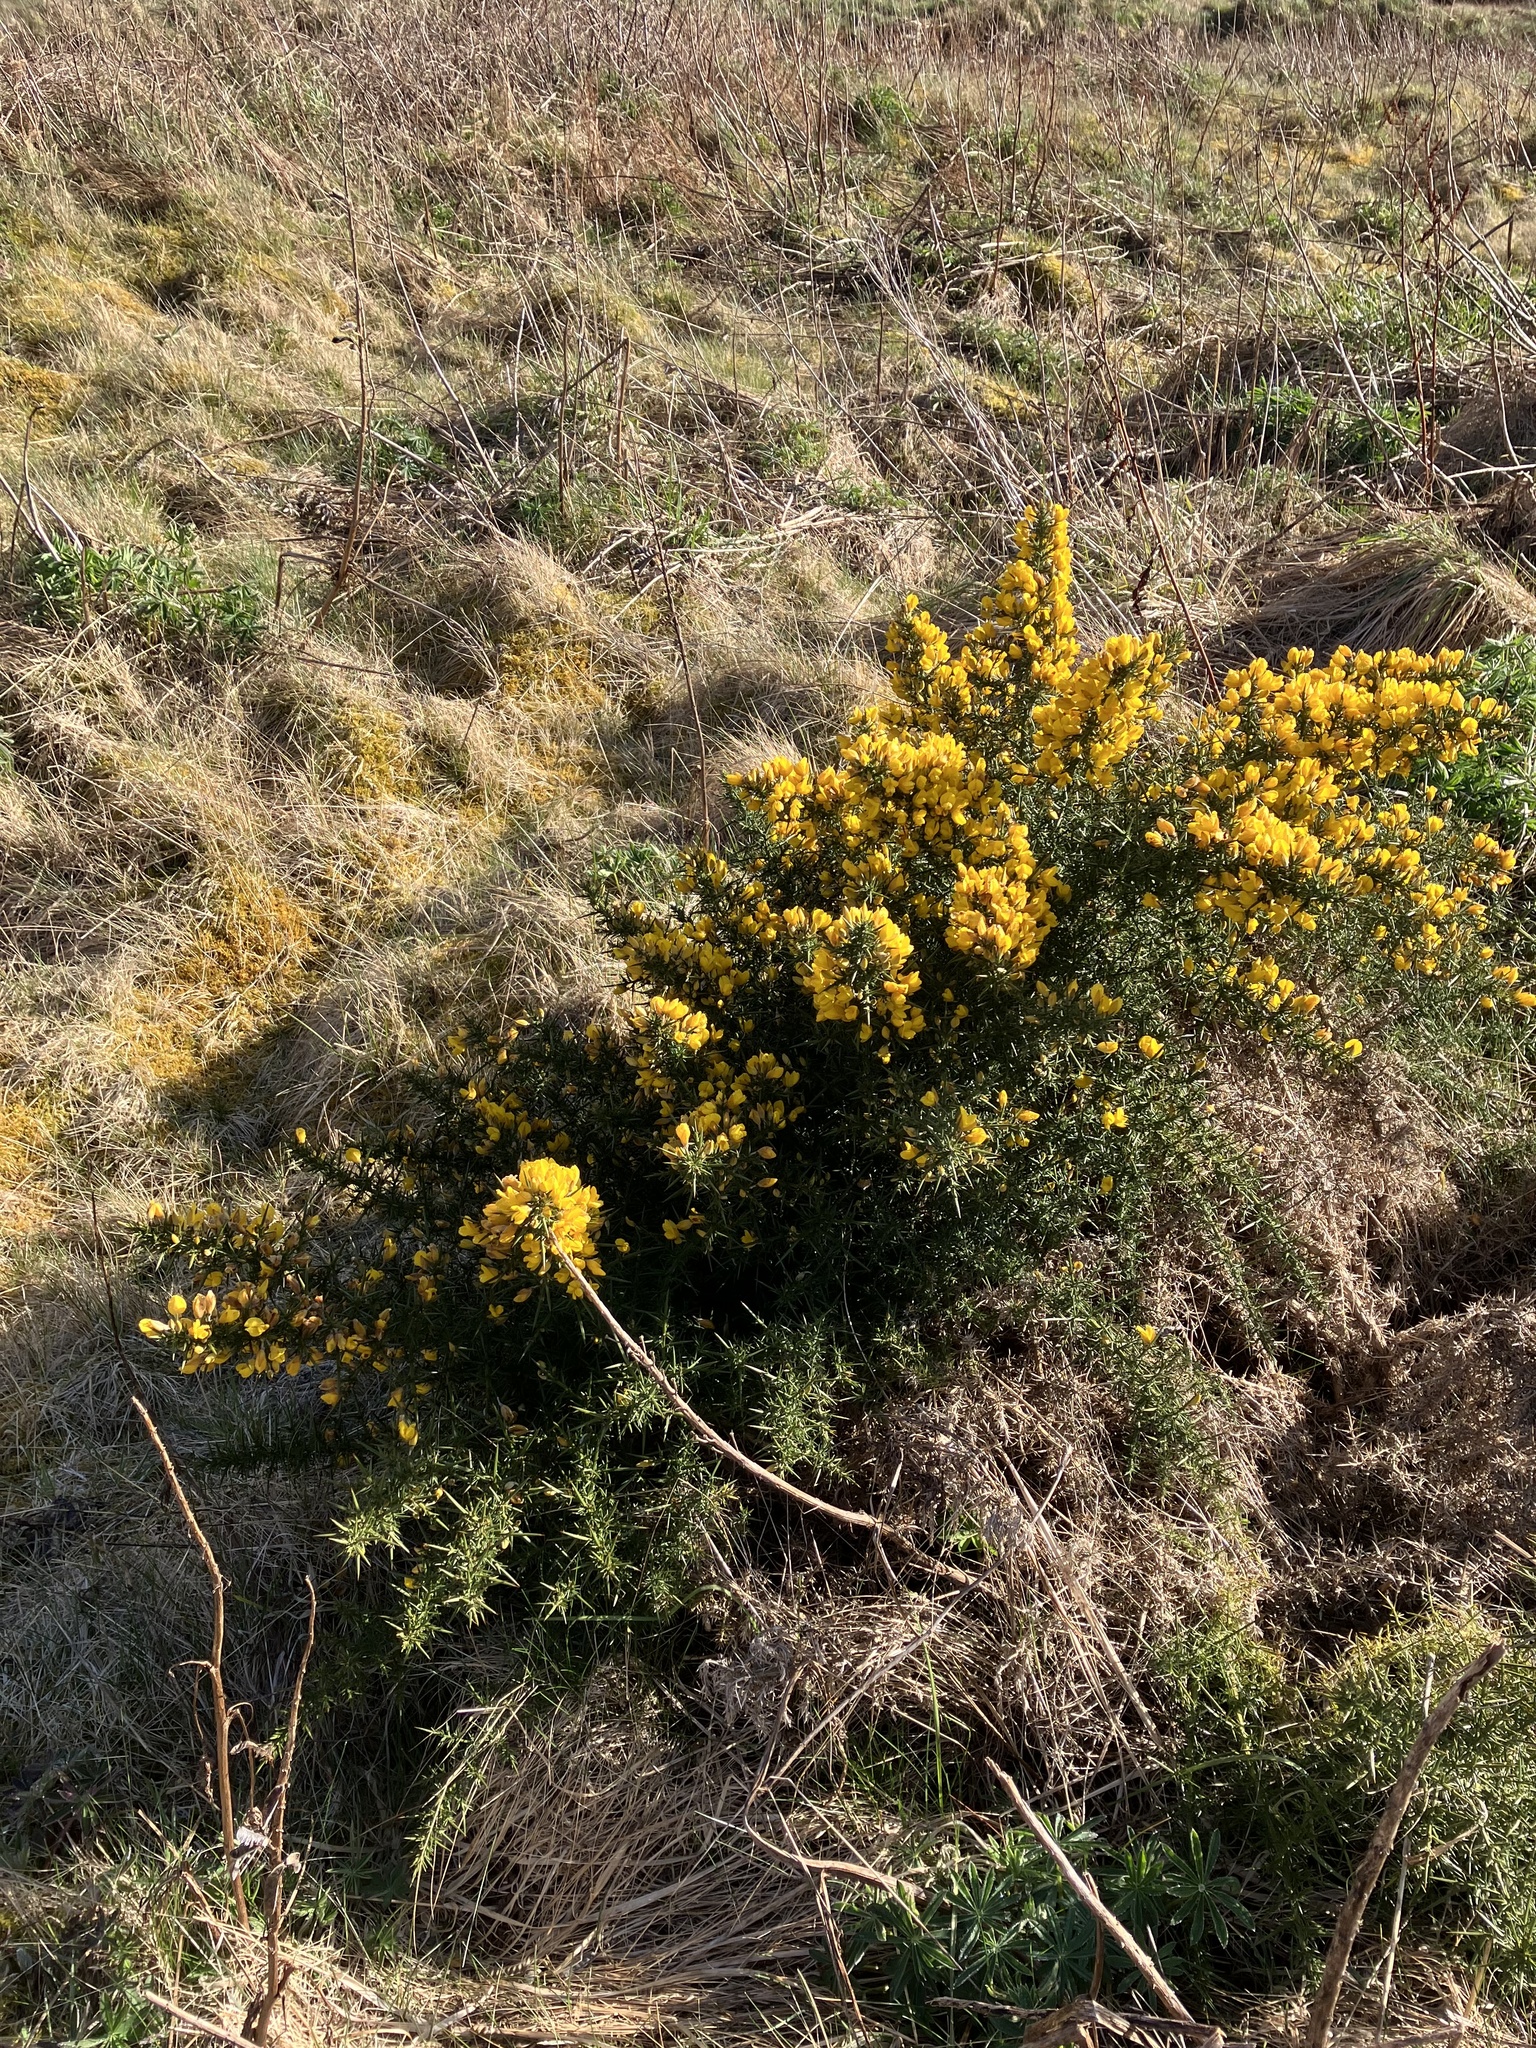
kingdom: Plantae
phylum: Tracheophyta
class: Magnoliopsida
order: Fabales
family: Fabaceae
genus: Ulex
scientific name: Ulex europaeus
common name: Common gorse
